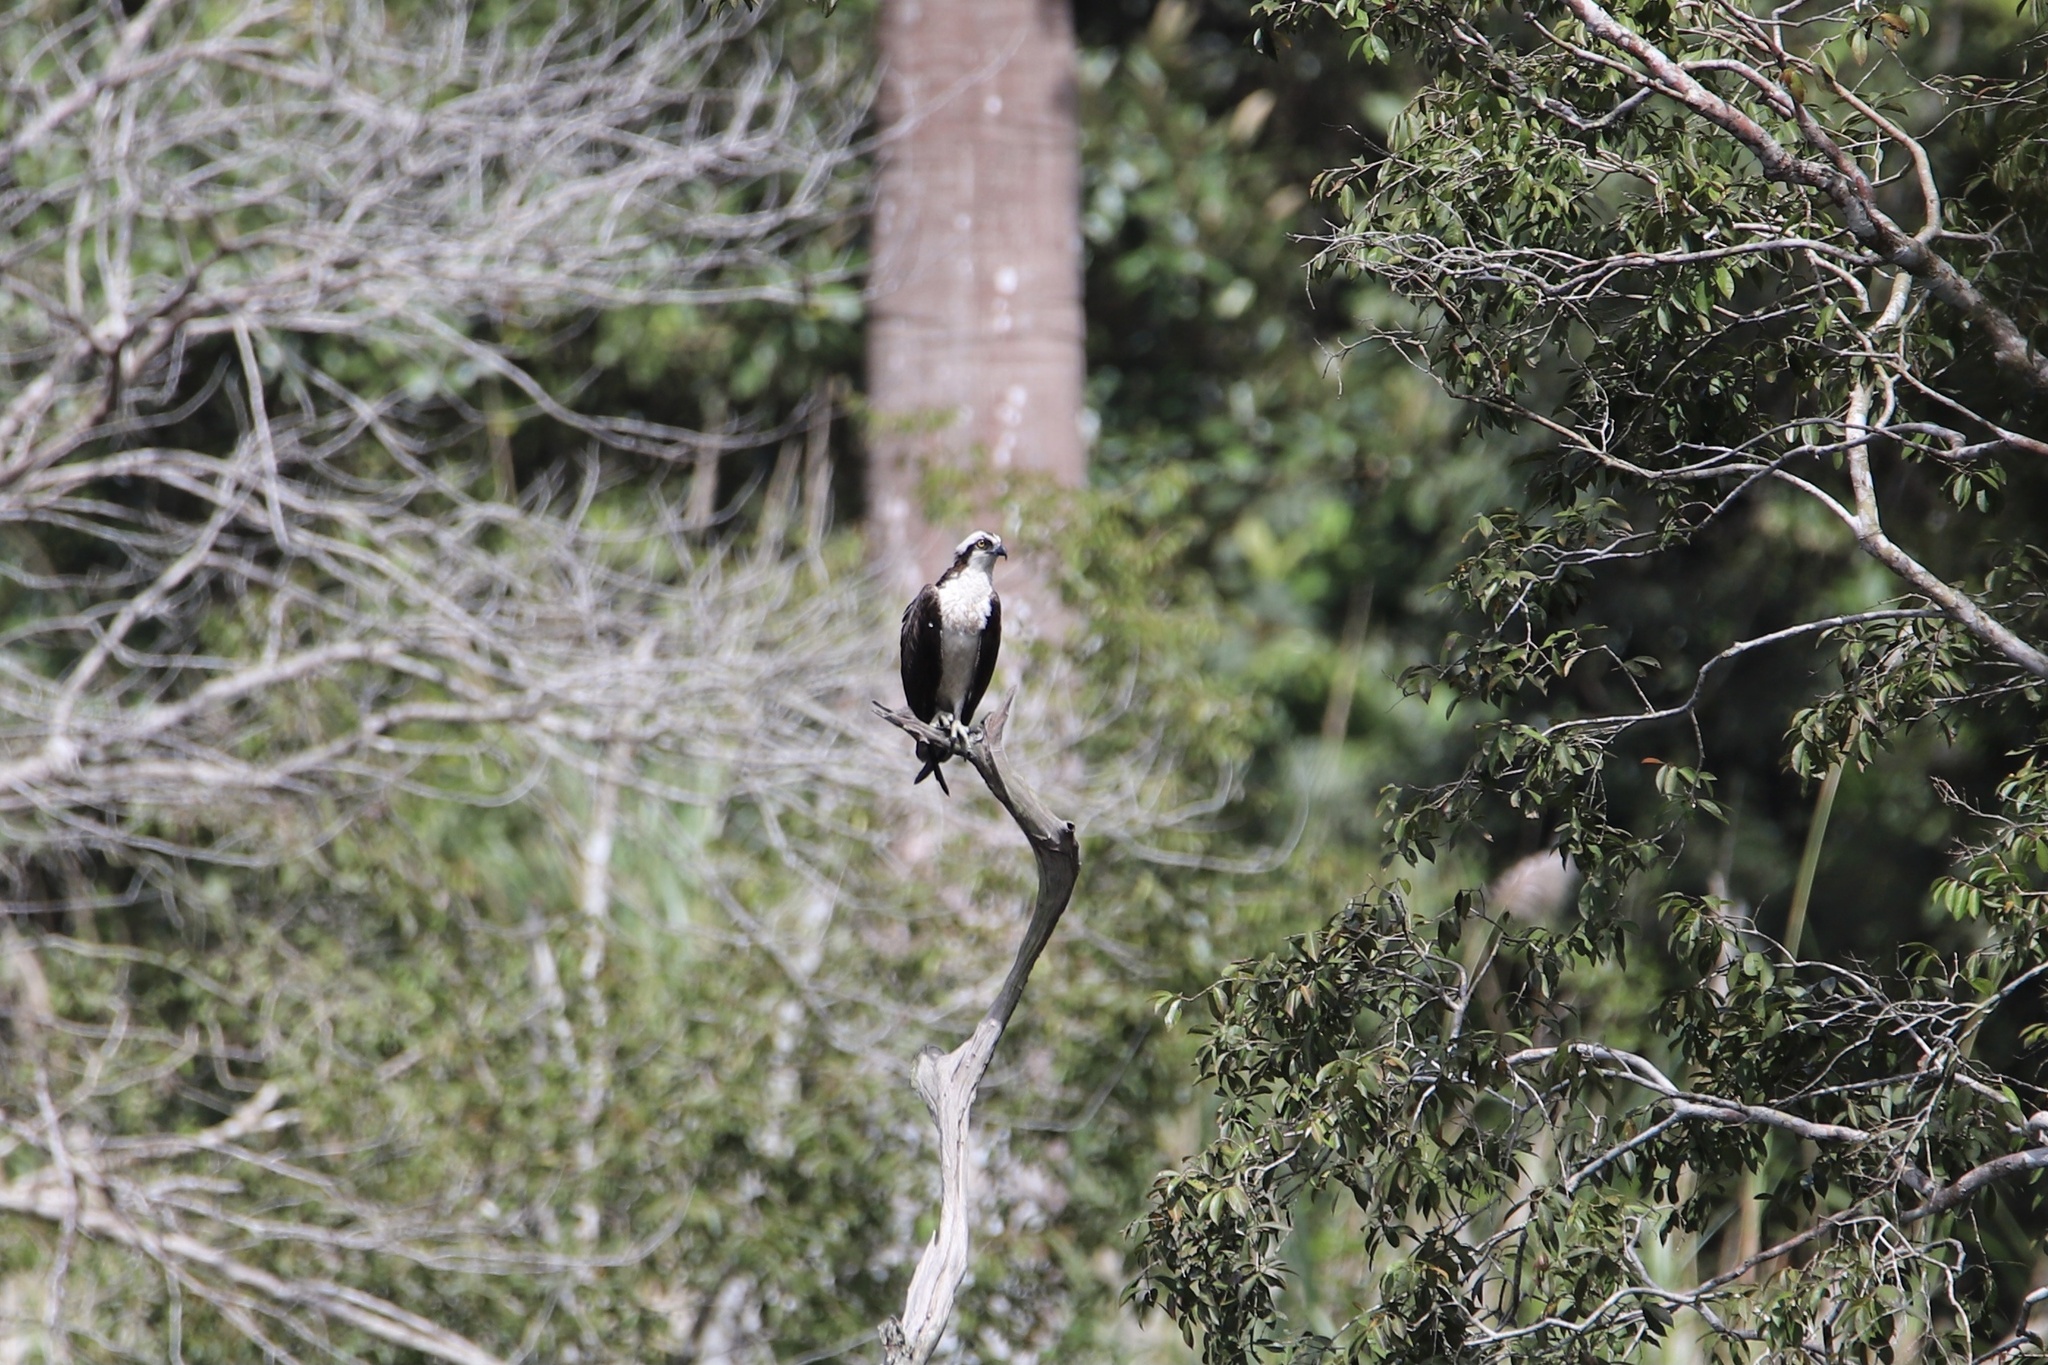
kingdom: Animalia
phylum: Chordata
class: Aves
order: Accipitriformes
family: Pandionidae
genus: Pandion
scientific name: Pandion haliaetus
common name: Osprey
